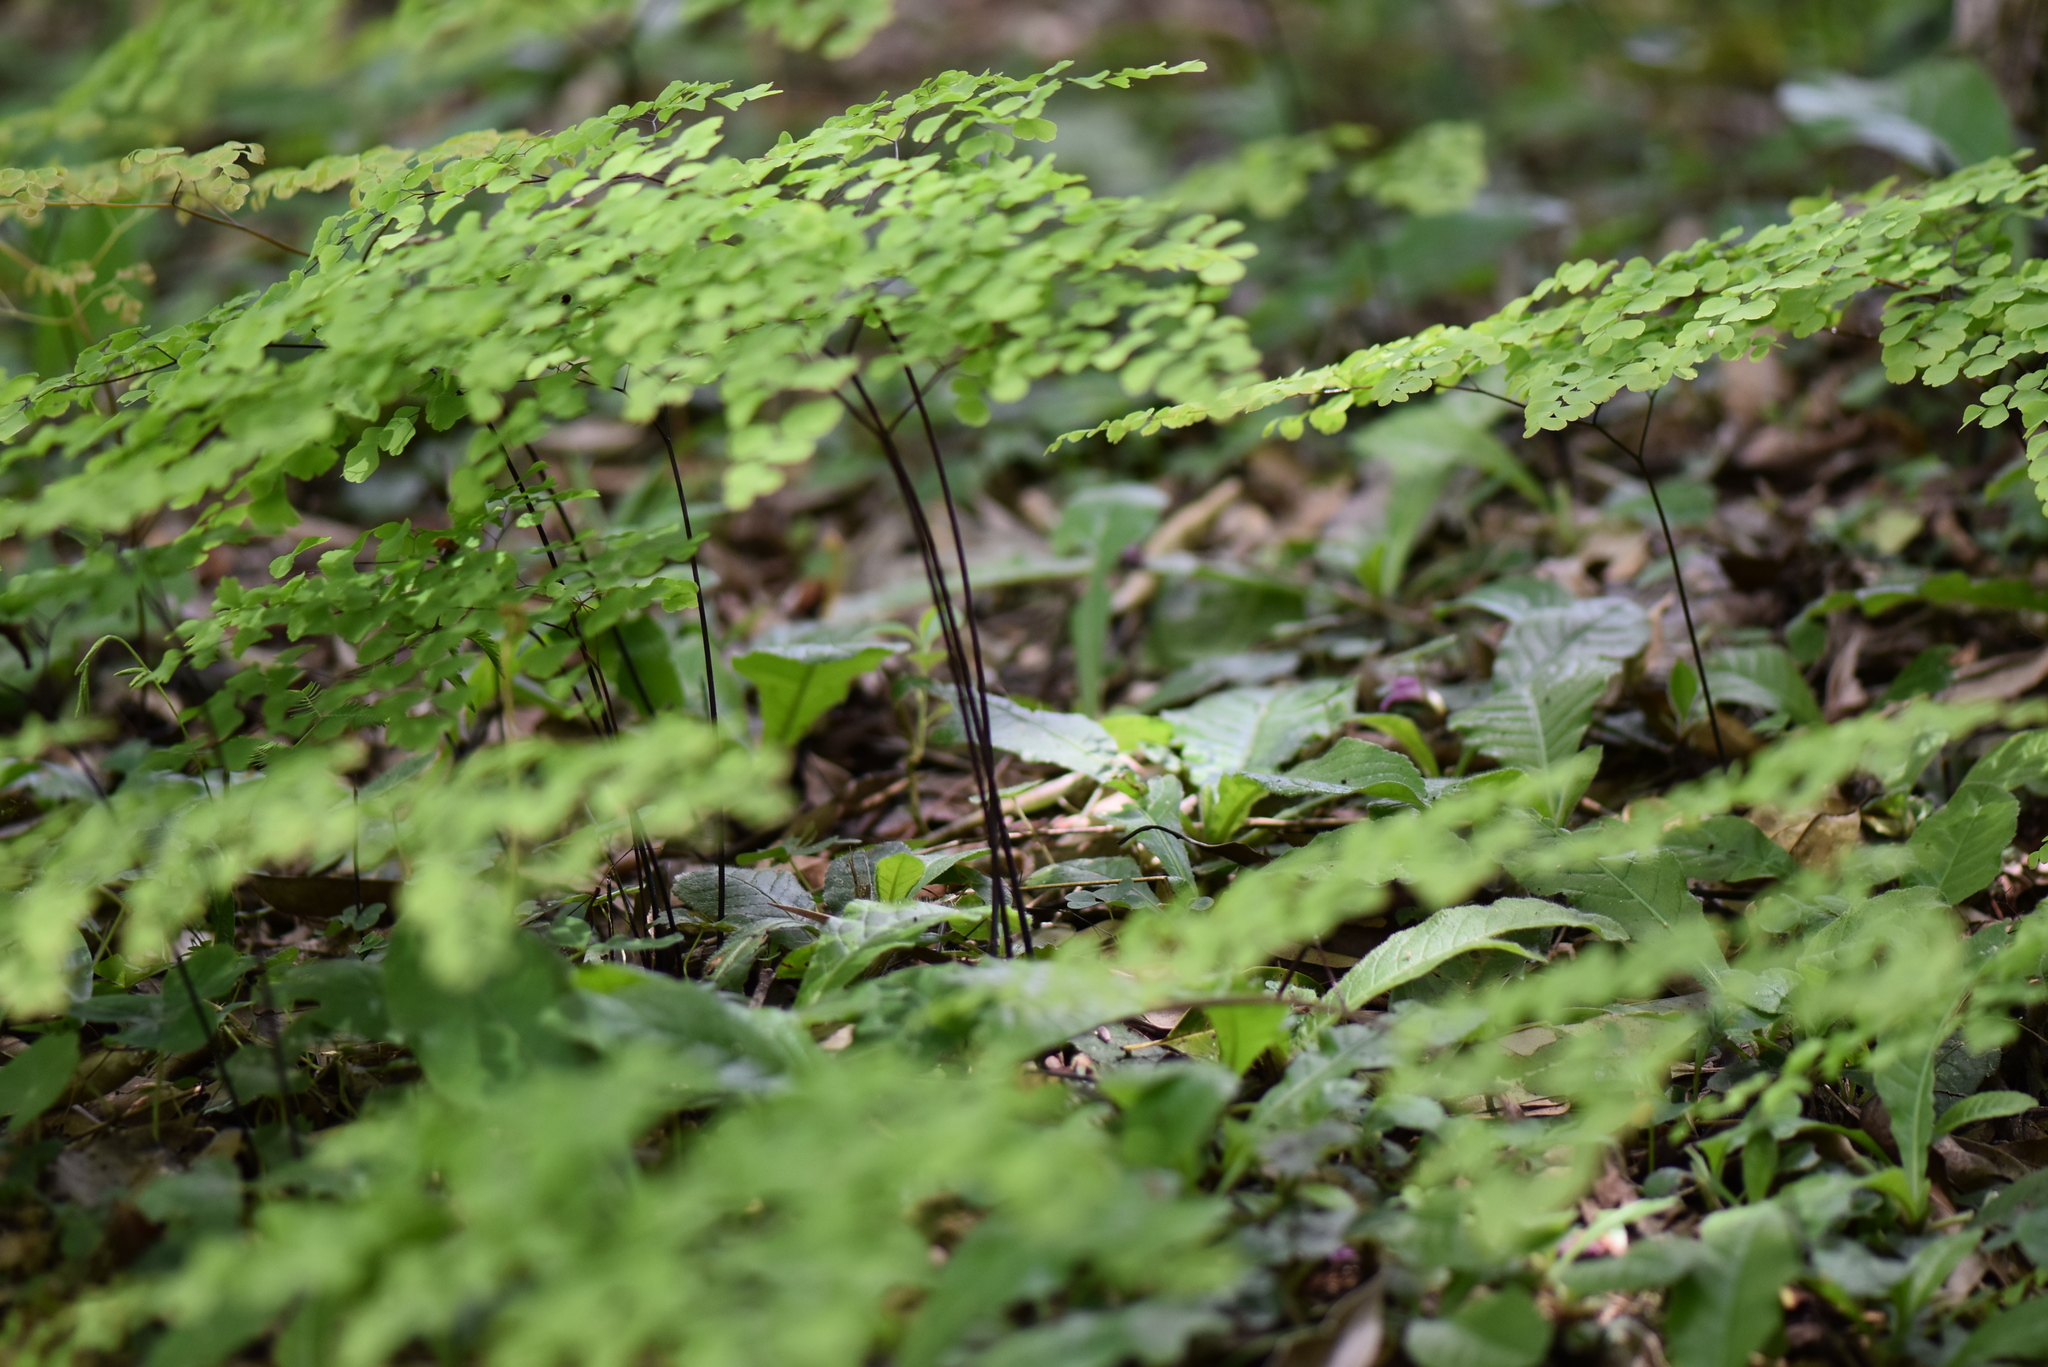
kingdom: Plantae
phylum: Tracheophyta
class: Polypodiopsida
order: Polypodiales
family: Pteridaceae
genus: Adiantum
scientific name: Adiantum capillus-veneris
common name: Maidenhair fern
